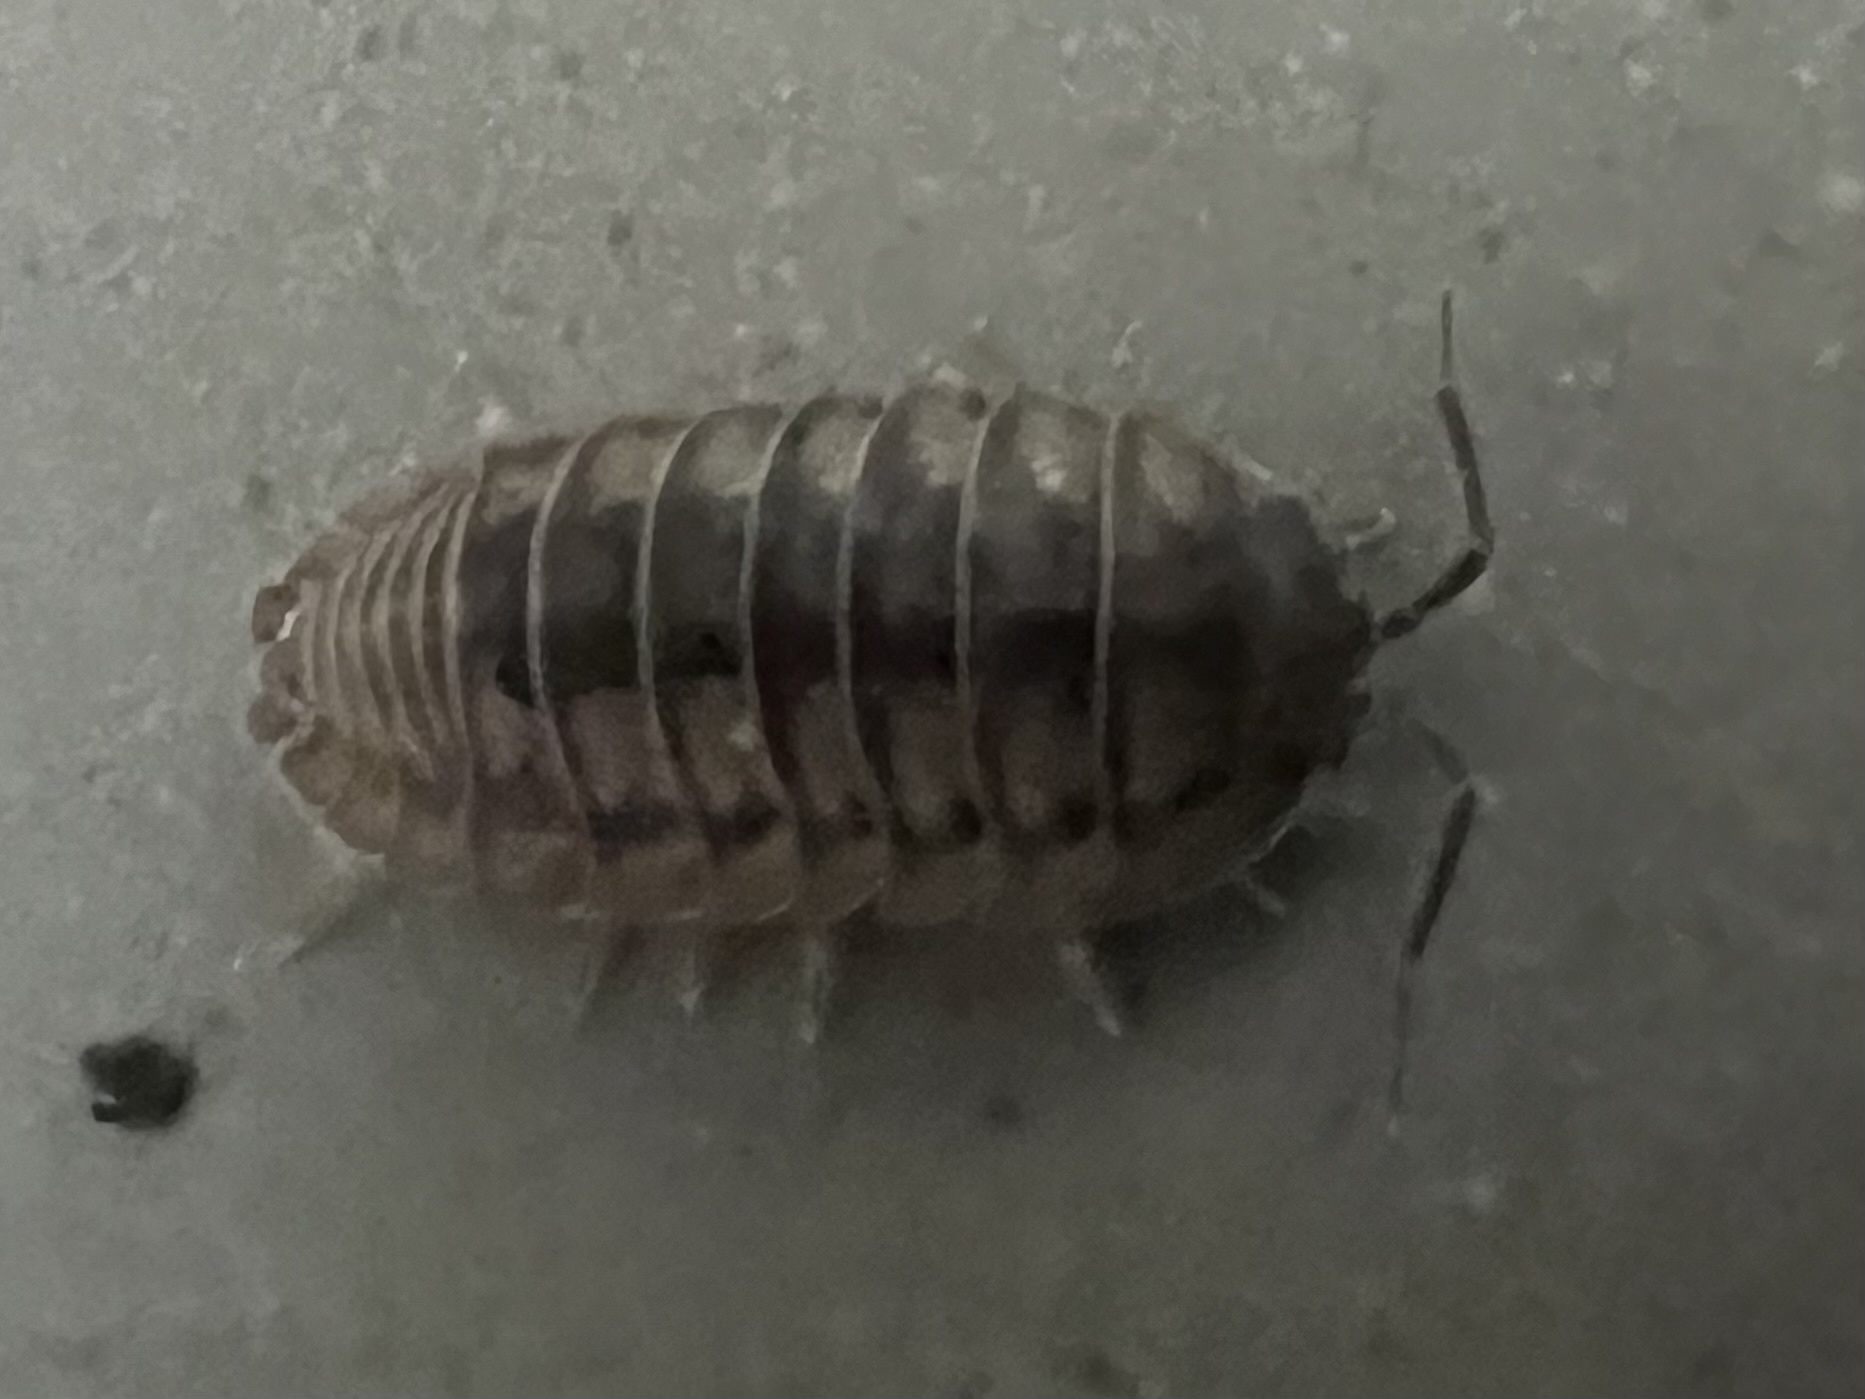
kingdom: Animalia
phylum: Arthropoda
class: Malacostraca
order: Isopoda
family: Armadillidiidae
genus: Armadillidium
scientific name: Armadillidium nasatum
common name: Isopod
